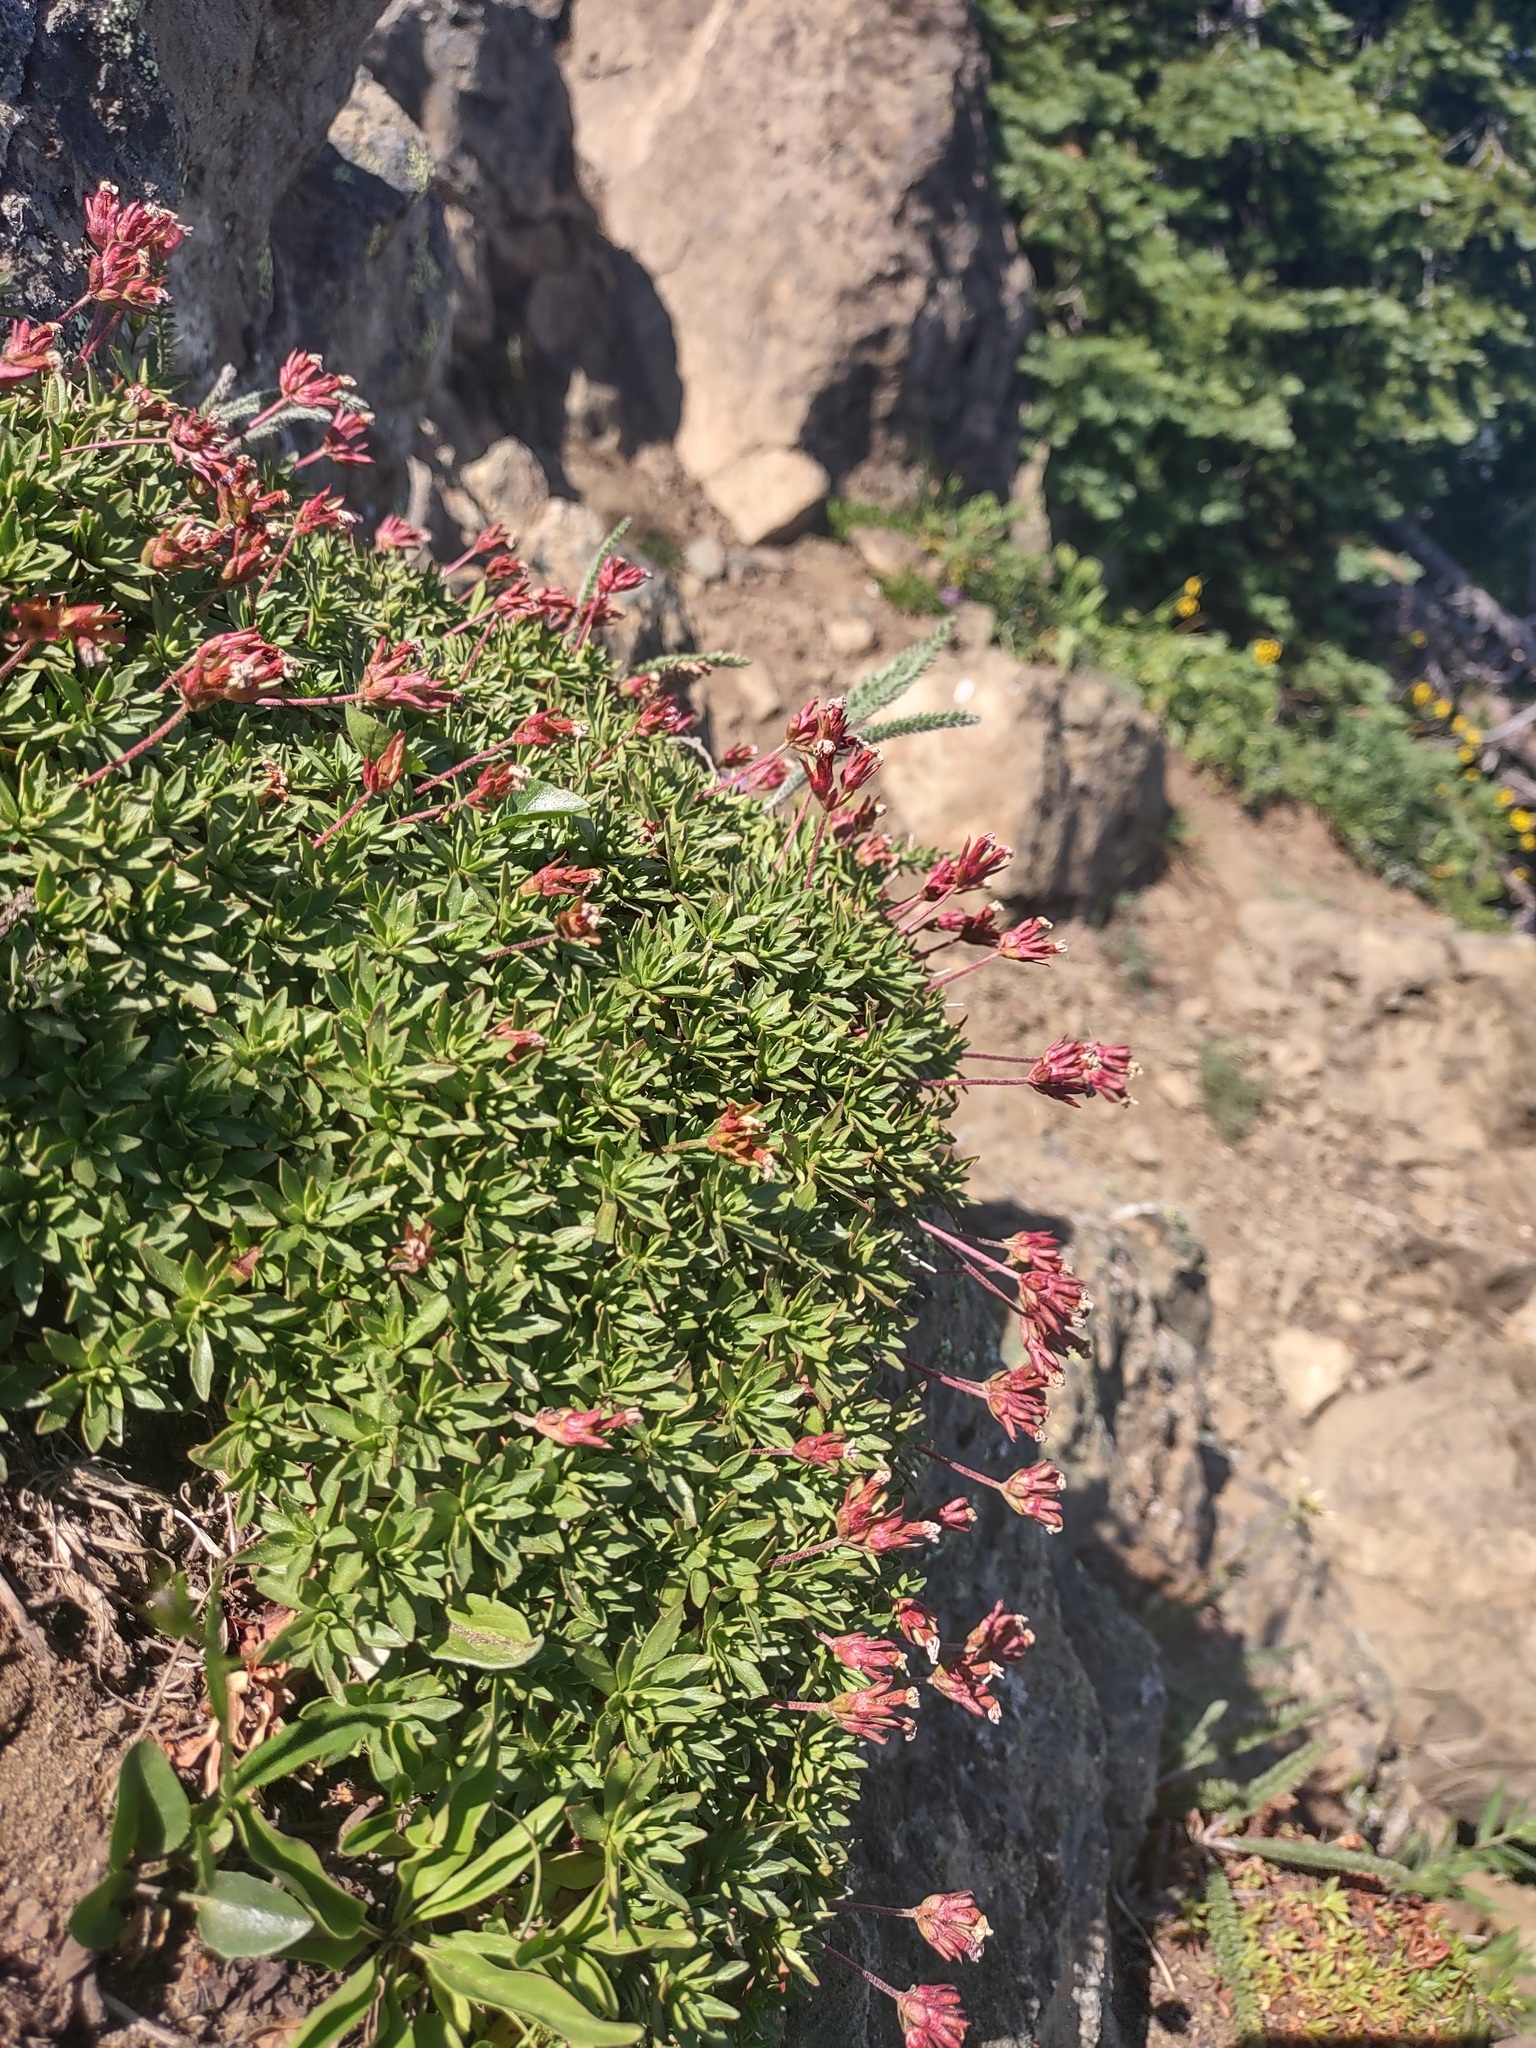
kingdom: Plantae
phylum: Tracheophyta
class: Magnoliopsida
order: Ericales
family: Primulaceae
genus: Androsace
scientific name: Androsace laevigata
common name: Cliff dwarf-primrose
